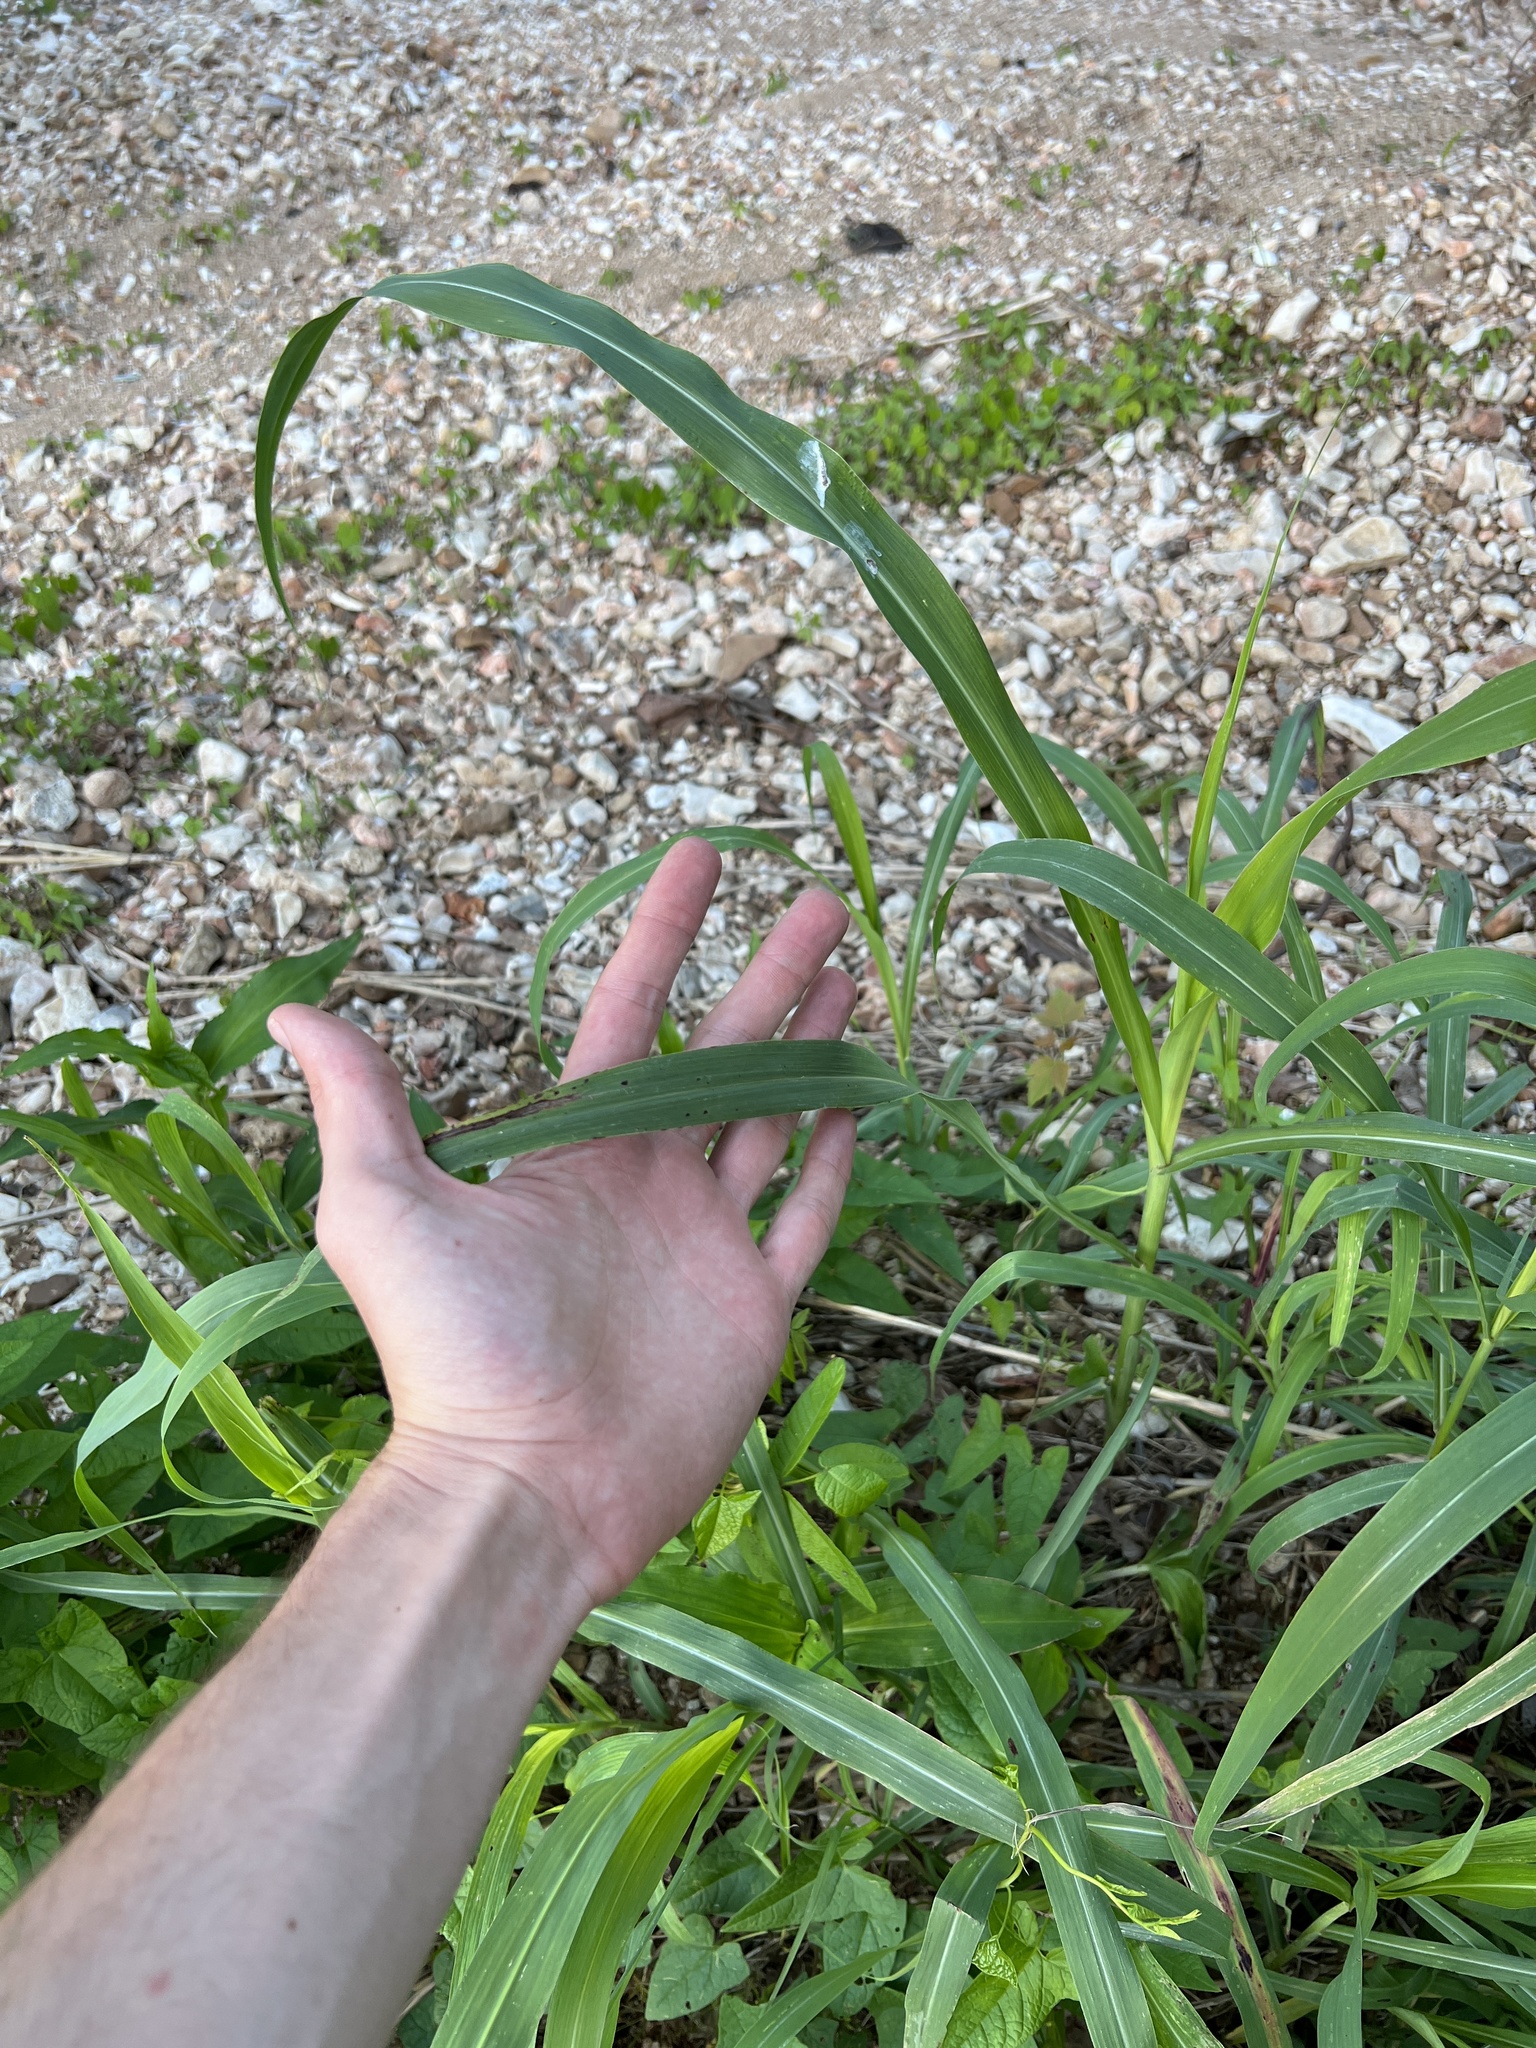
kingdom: Plantae
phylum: Tracheophyta
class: Liliopsida
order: Poales
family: Poaceae
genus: Sorghum
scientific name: Sorghum halepense
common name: Johnson-grass
